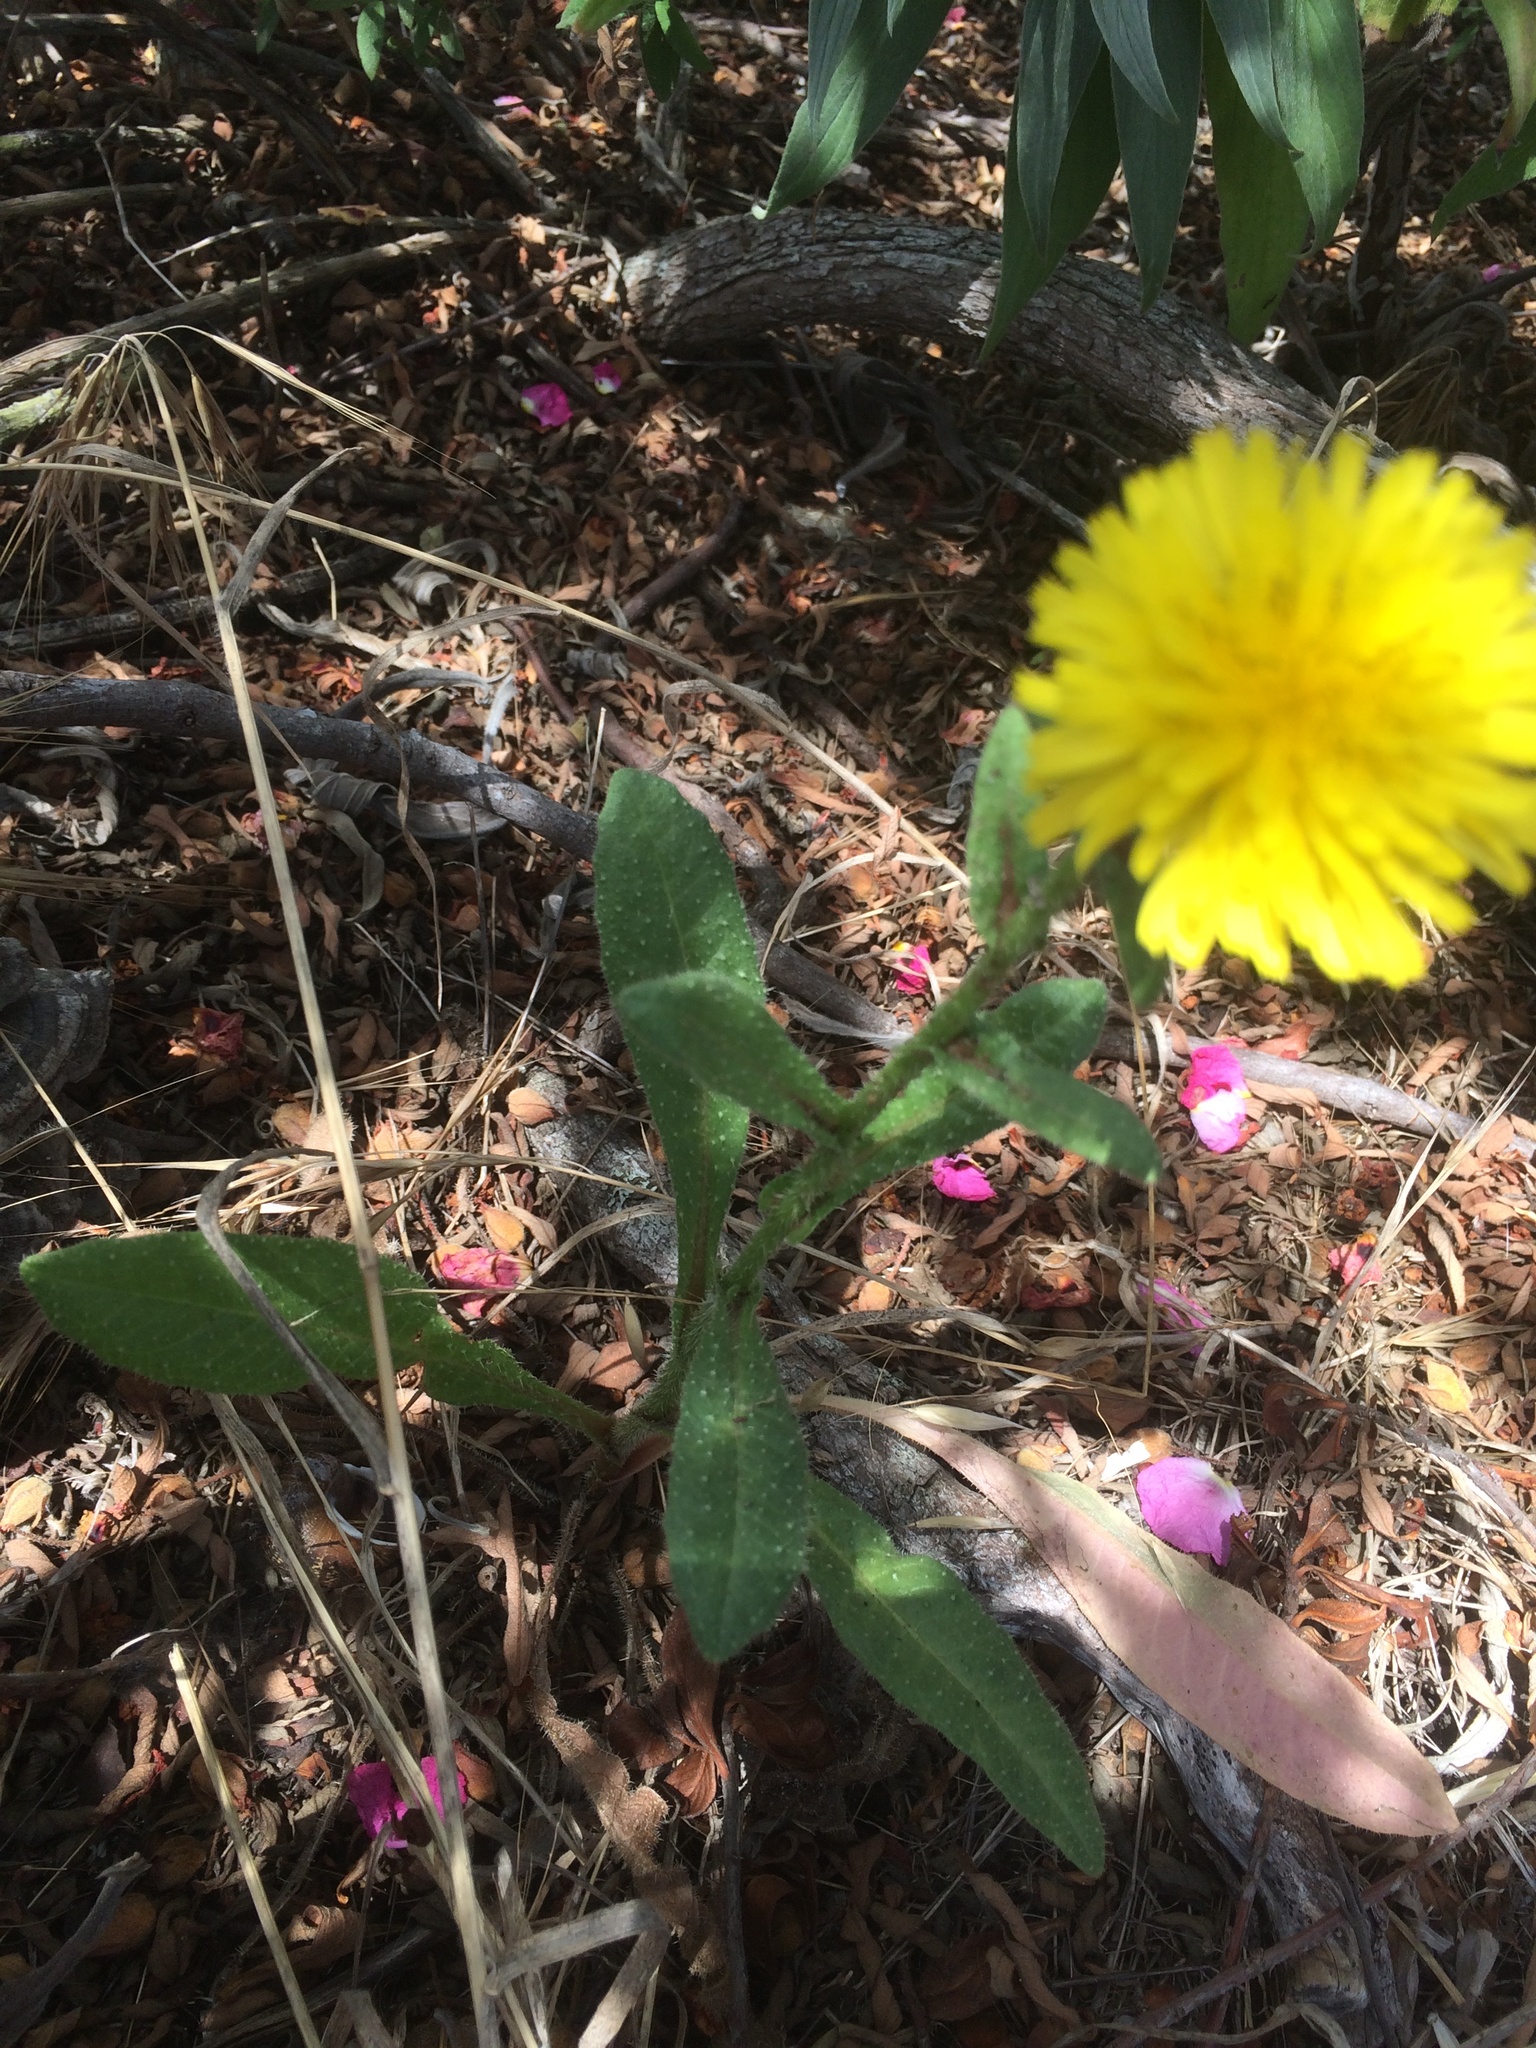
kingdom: Plantae
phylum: Tracheophyta
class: Magnoliopsida
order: Asterales
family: Asteraceae
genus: Helminthotheca
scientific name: Helminthotheca echioides
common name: Ox-tongue
